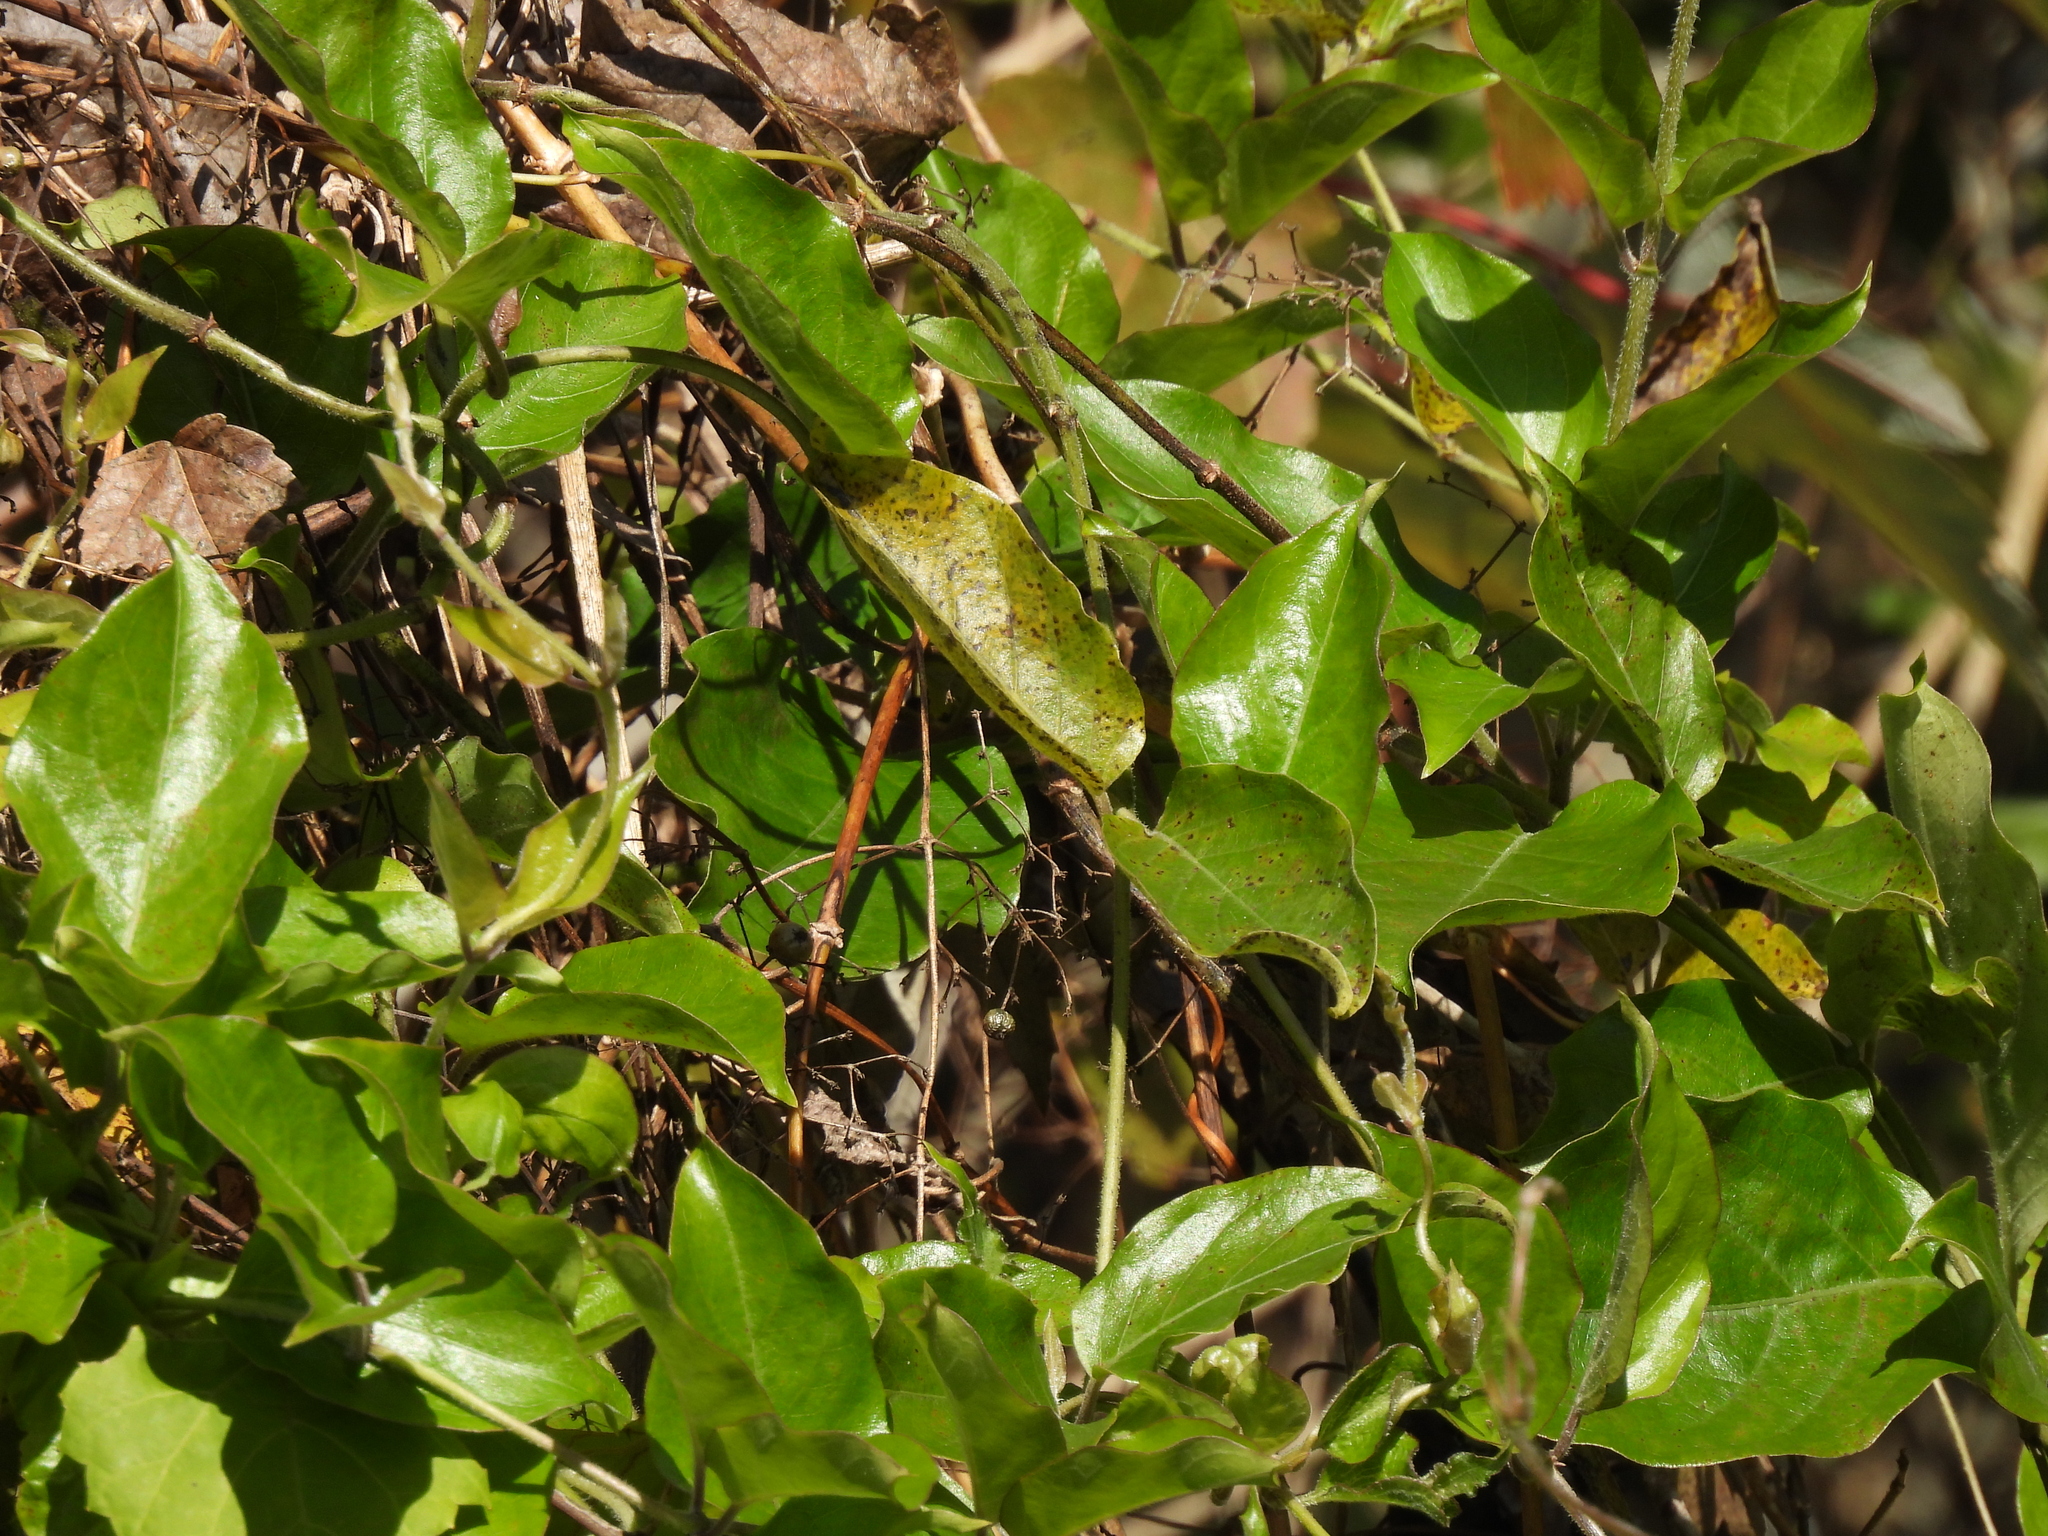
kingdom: Plantae
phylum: Tracheophyta
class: Magnoliopsida
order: Malpighiales
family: Passifloraceae
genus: Passiflora
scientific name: Passiflora pallida
